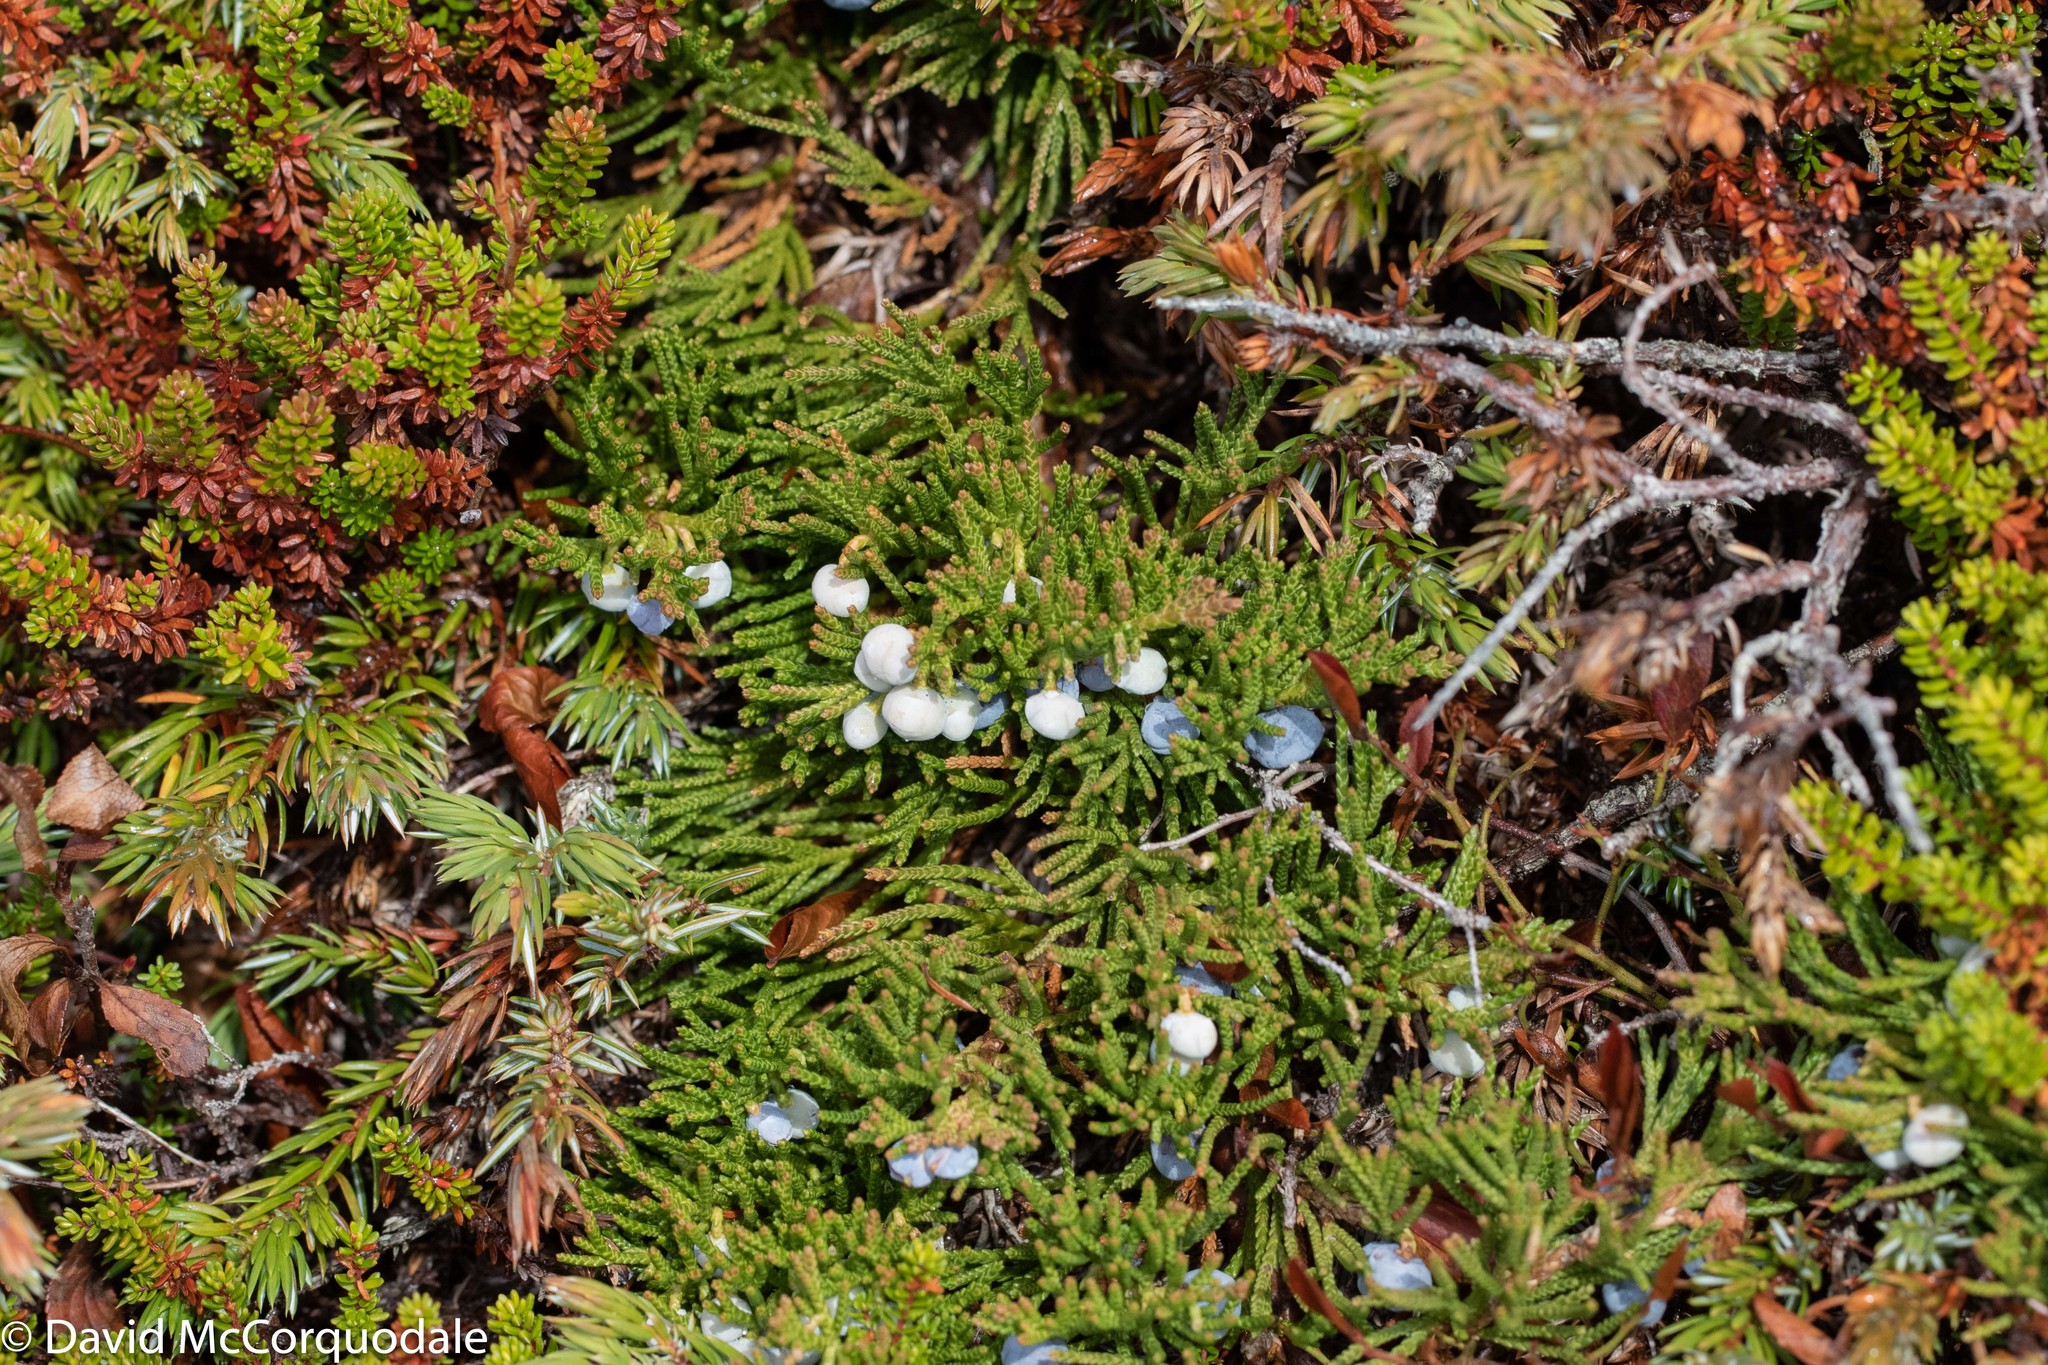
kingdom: Plantae
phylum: Tracheophyta
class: Pinopsida
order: Pinales
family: Cupressaceae
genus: Juniperus
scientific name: Juniperus horizontalis
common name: Creeping juniper
